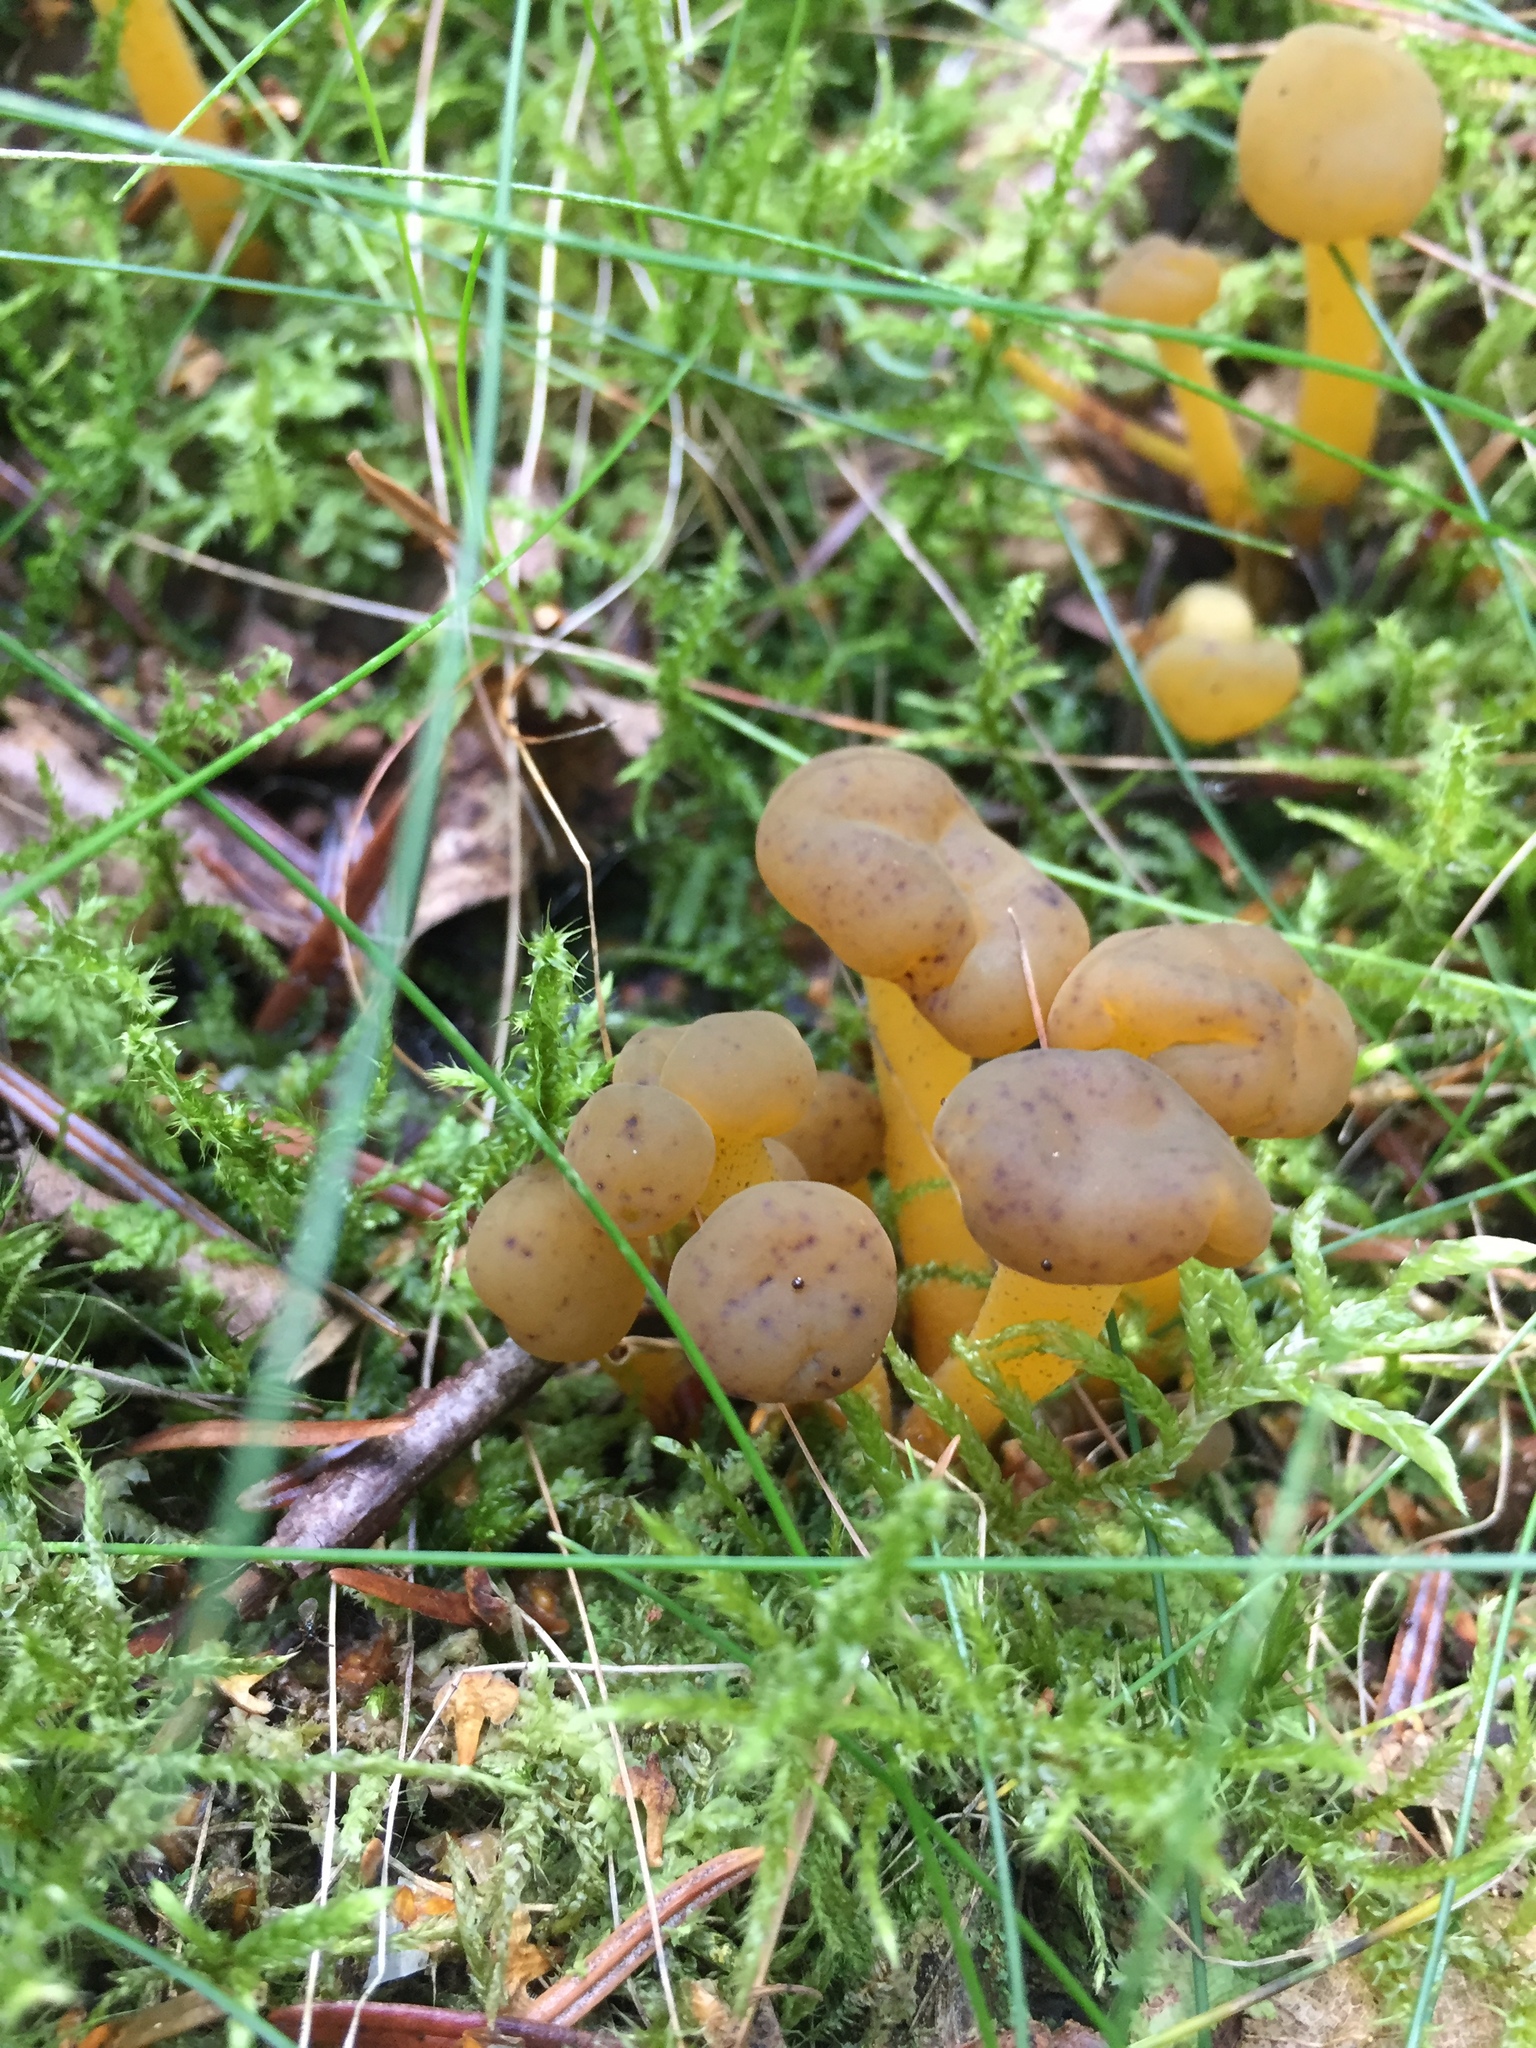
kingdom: Fungi
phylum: Ascomycota
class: Leotiomycetes
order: Leotiales
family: Leotiaceae
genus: Leotia
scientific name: Leotia lubrica
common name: Jellybaby
